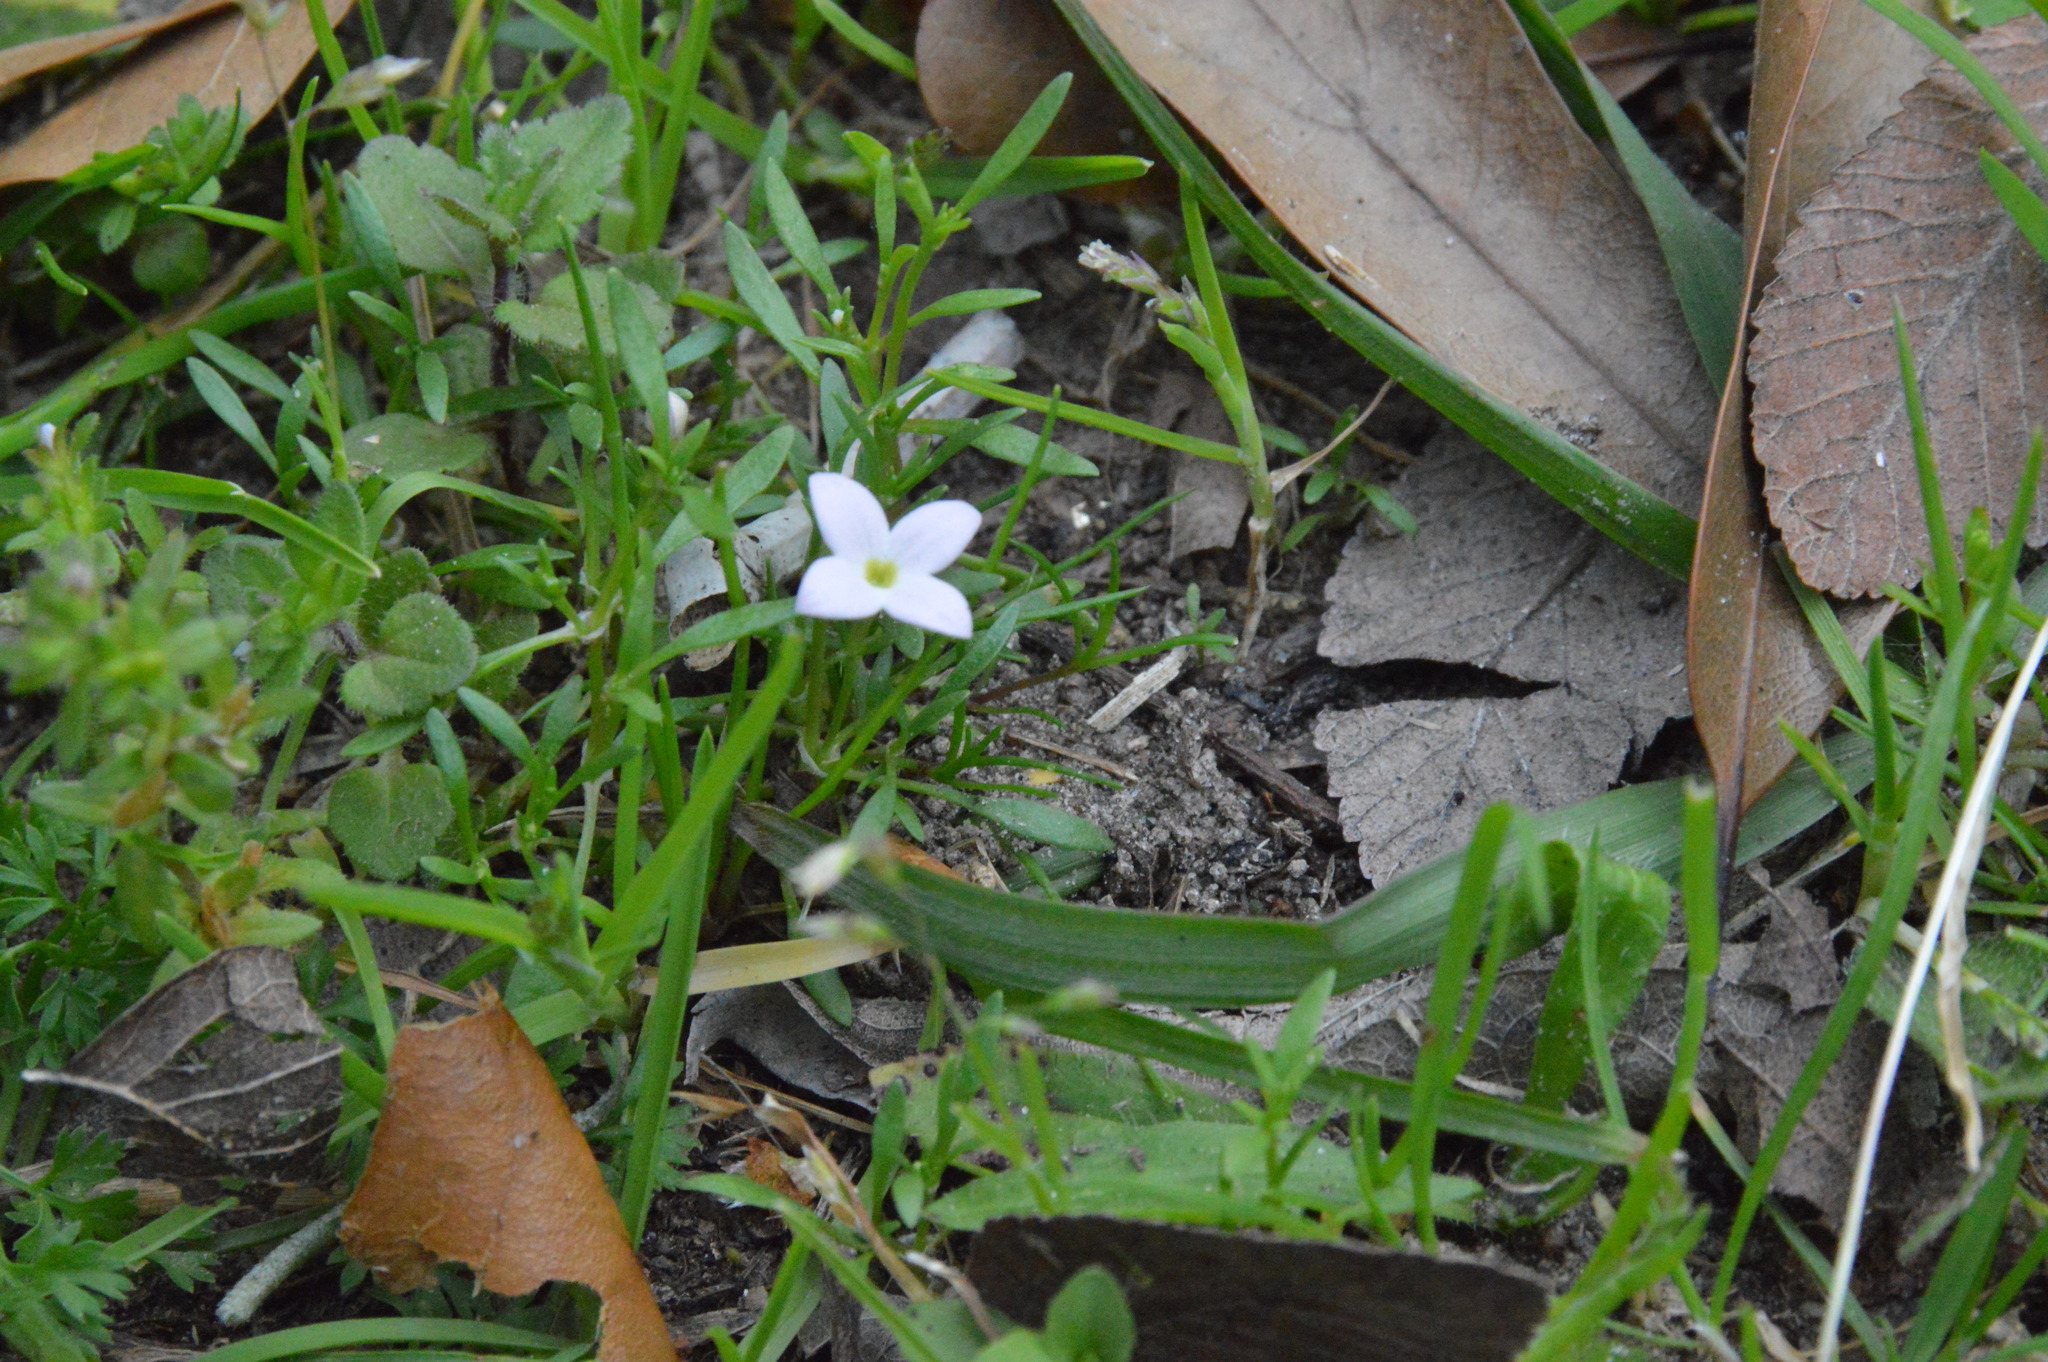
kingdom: Plantae
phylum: Tracheophyta
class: Magnoliopsida
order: Gentianales
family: Rubiaceae
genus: Houstonia
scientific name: Houstonia rosea
